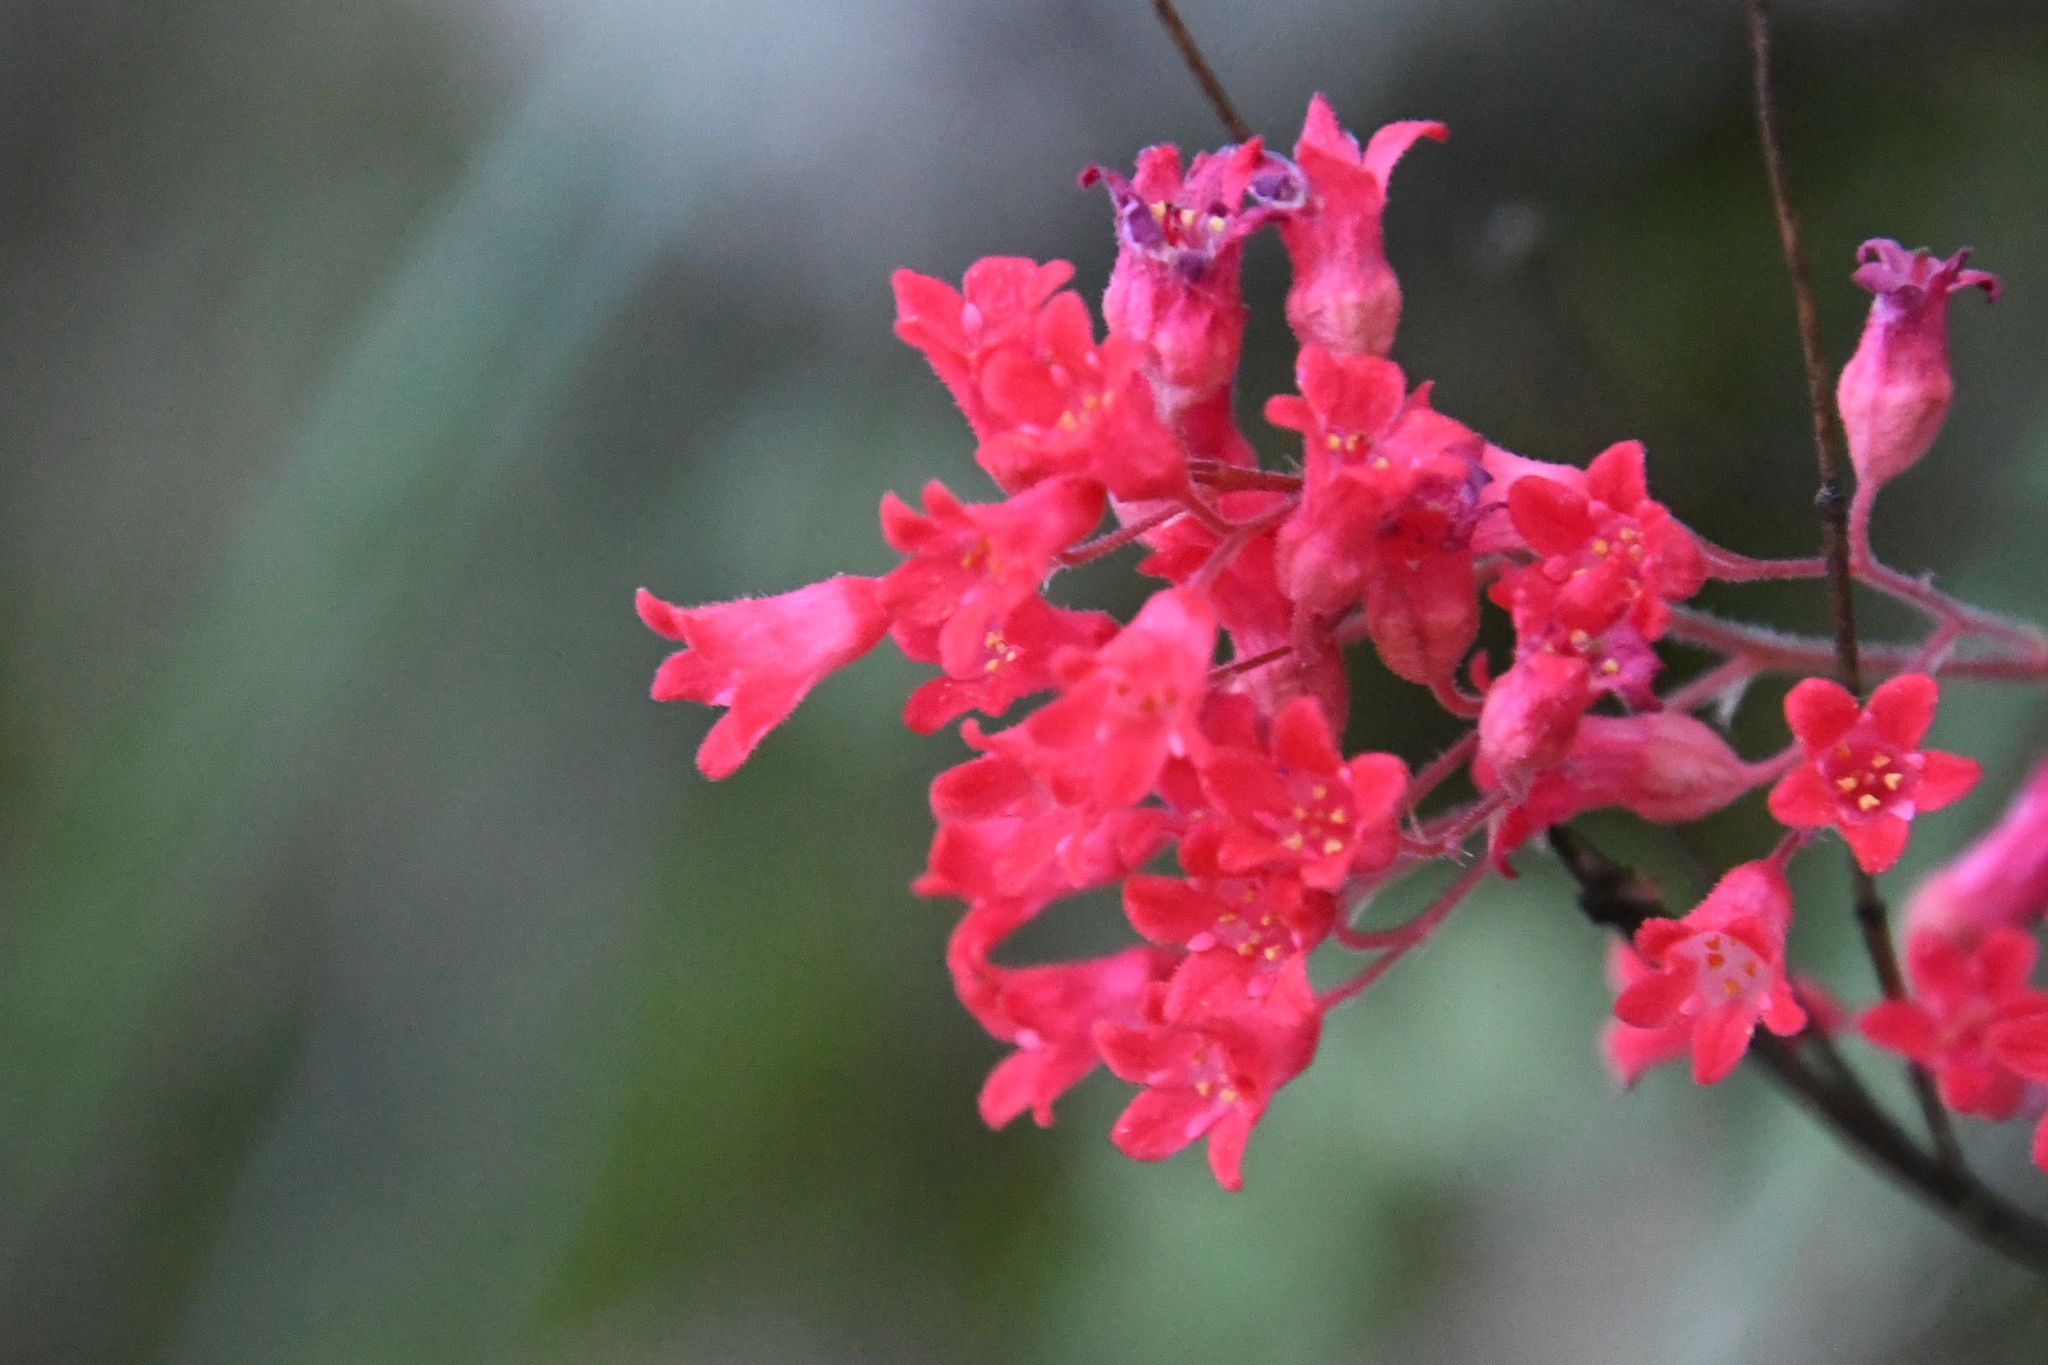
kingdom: Plantae
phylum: Tracheophyta
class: Magnoliopsida
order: Saxifragales
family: Saxifragaceae
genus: Heuchera
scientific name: Heuchera sanguinea
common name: Coralbells
